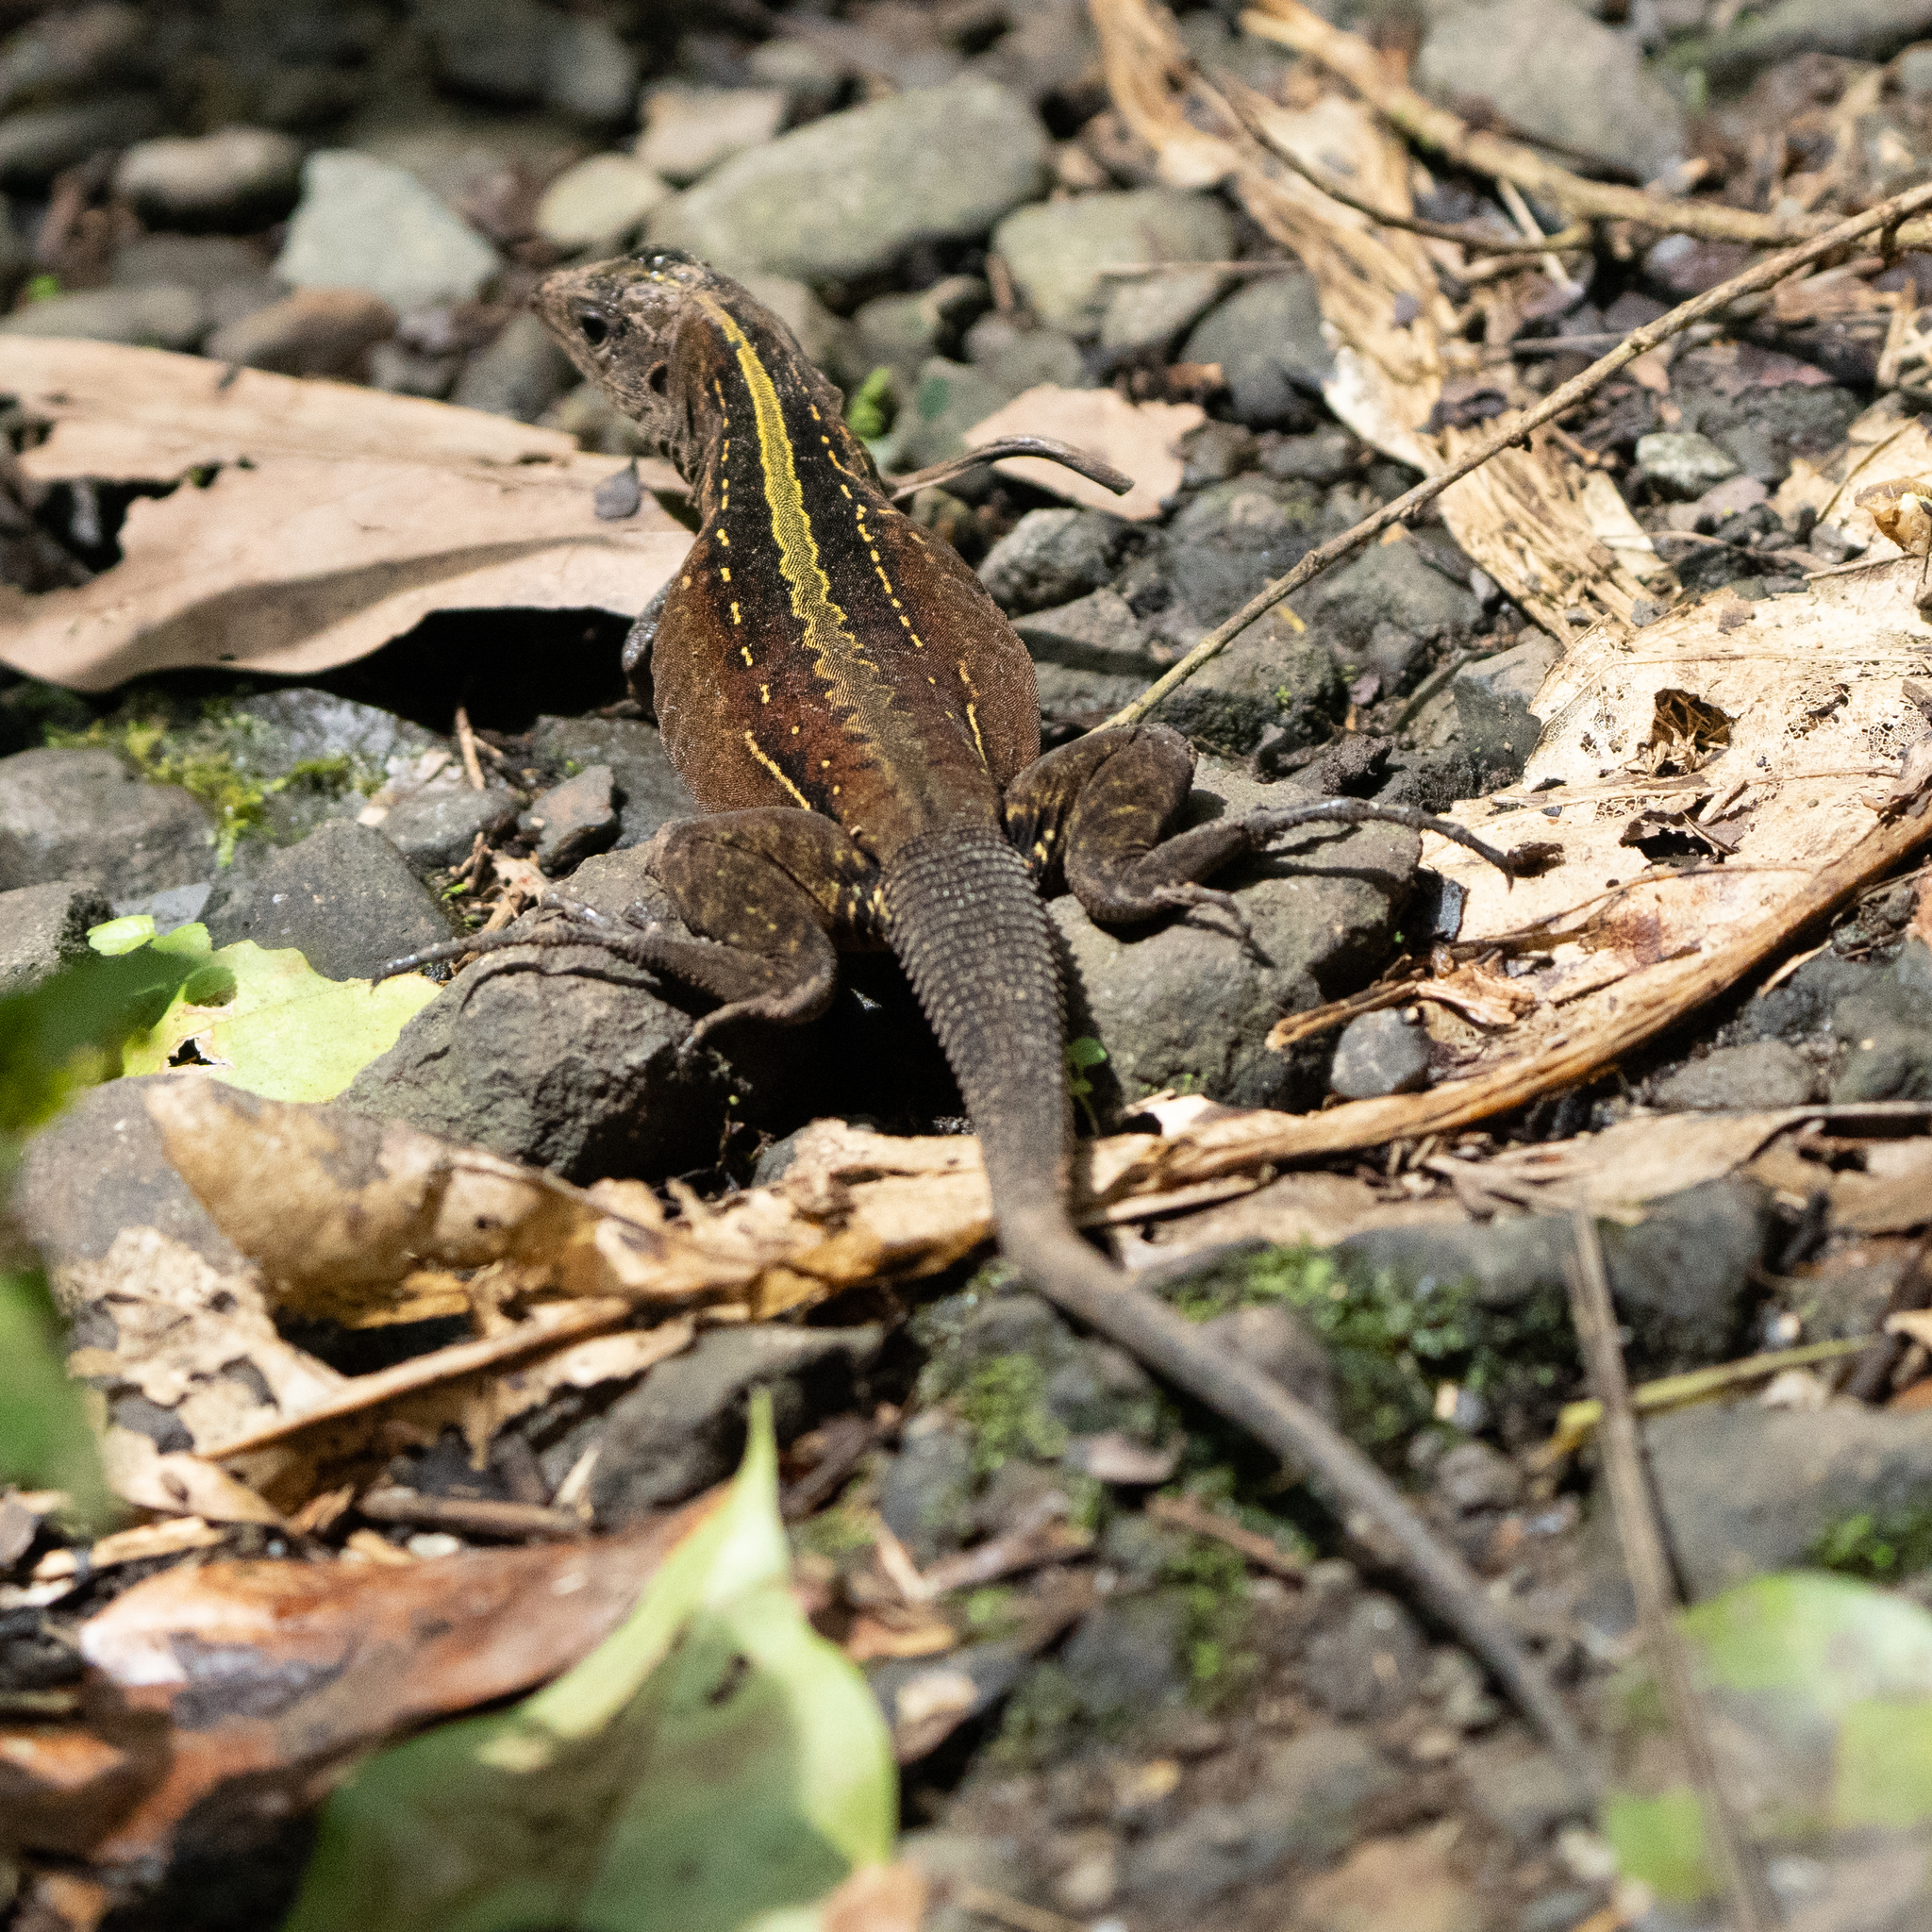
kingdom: Animalia
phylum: Chordata
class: Squamata
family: Teiidae
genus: Holcosus
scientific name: Holcosus festivus
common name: Middle american ameiva
